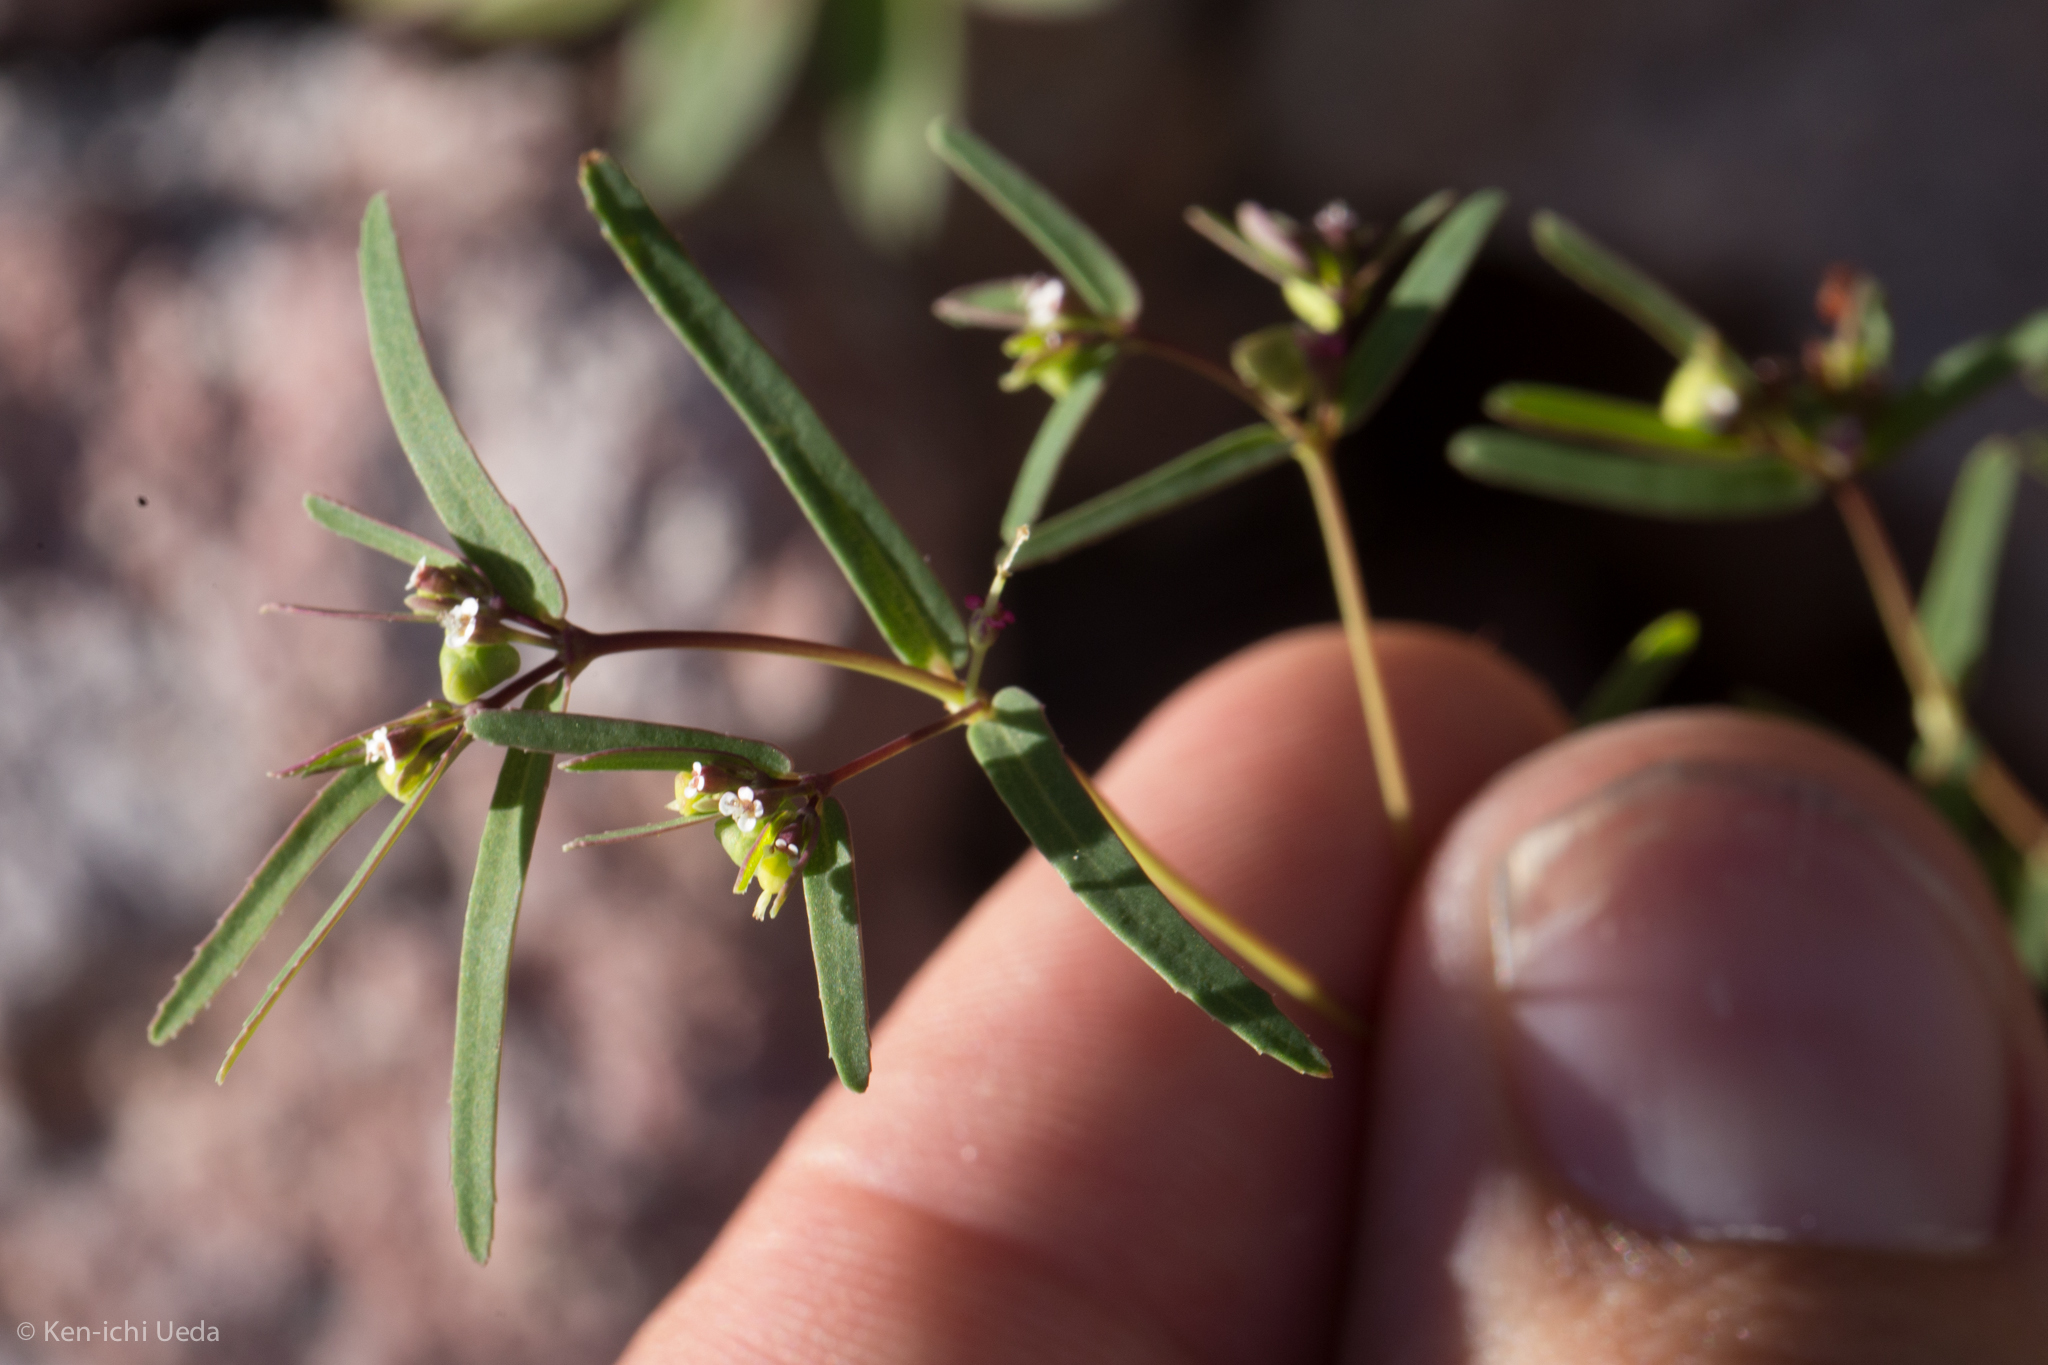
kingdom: Plantae
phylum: Tracheophyta
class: Magnoliopsida
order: Malpighiales
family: Euphorbiaceae
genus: Euphorbia
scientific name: Euphorbia hyssopifolia
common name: Hyssopleaf sandmat
